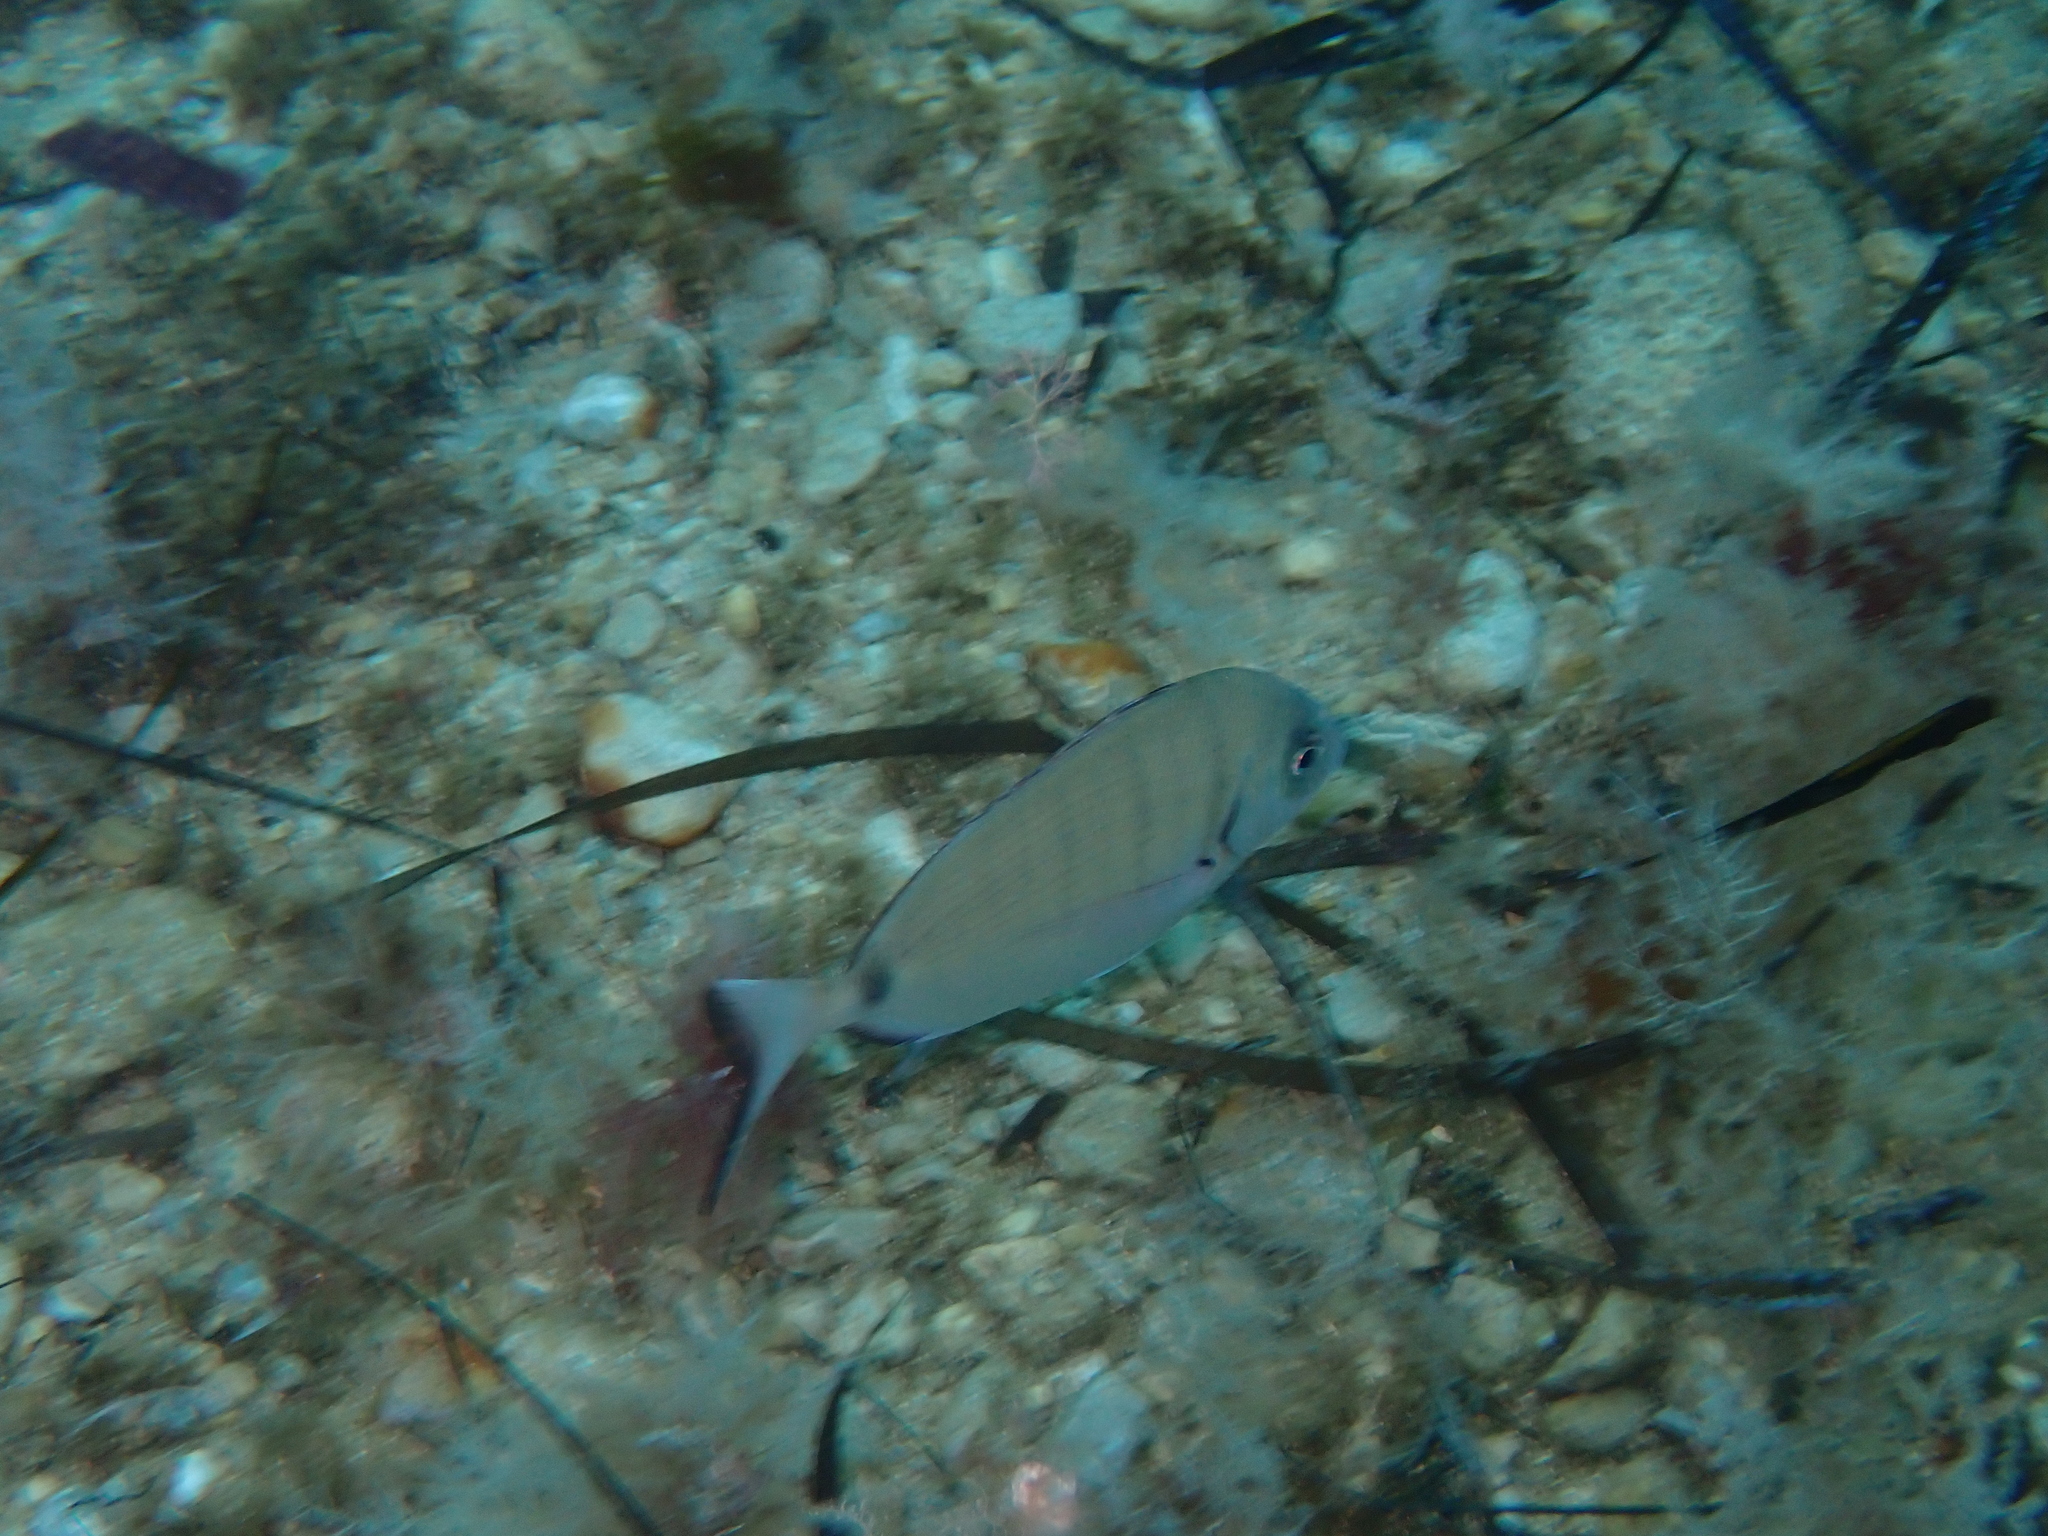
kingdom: Animalia
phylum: Chordata
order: Perciformes
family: Sparidae
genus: Diplodus
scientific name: Diplodus sargus
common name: White seabream
